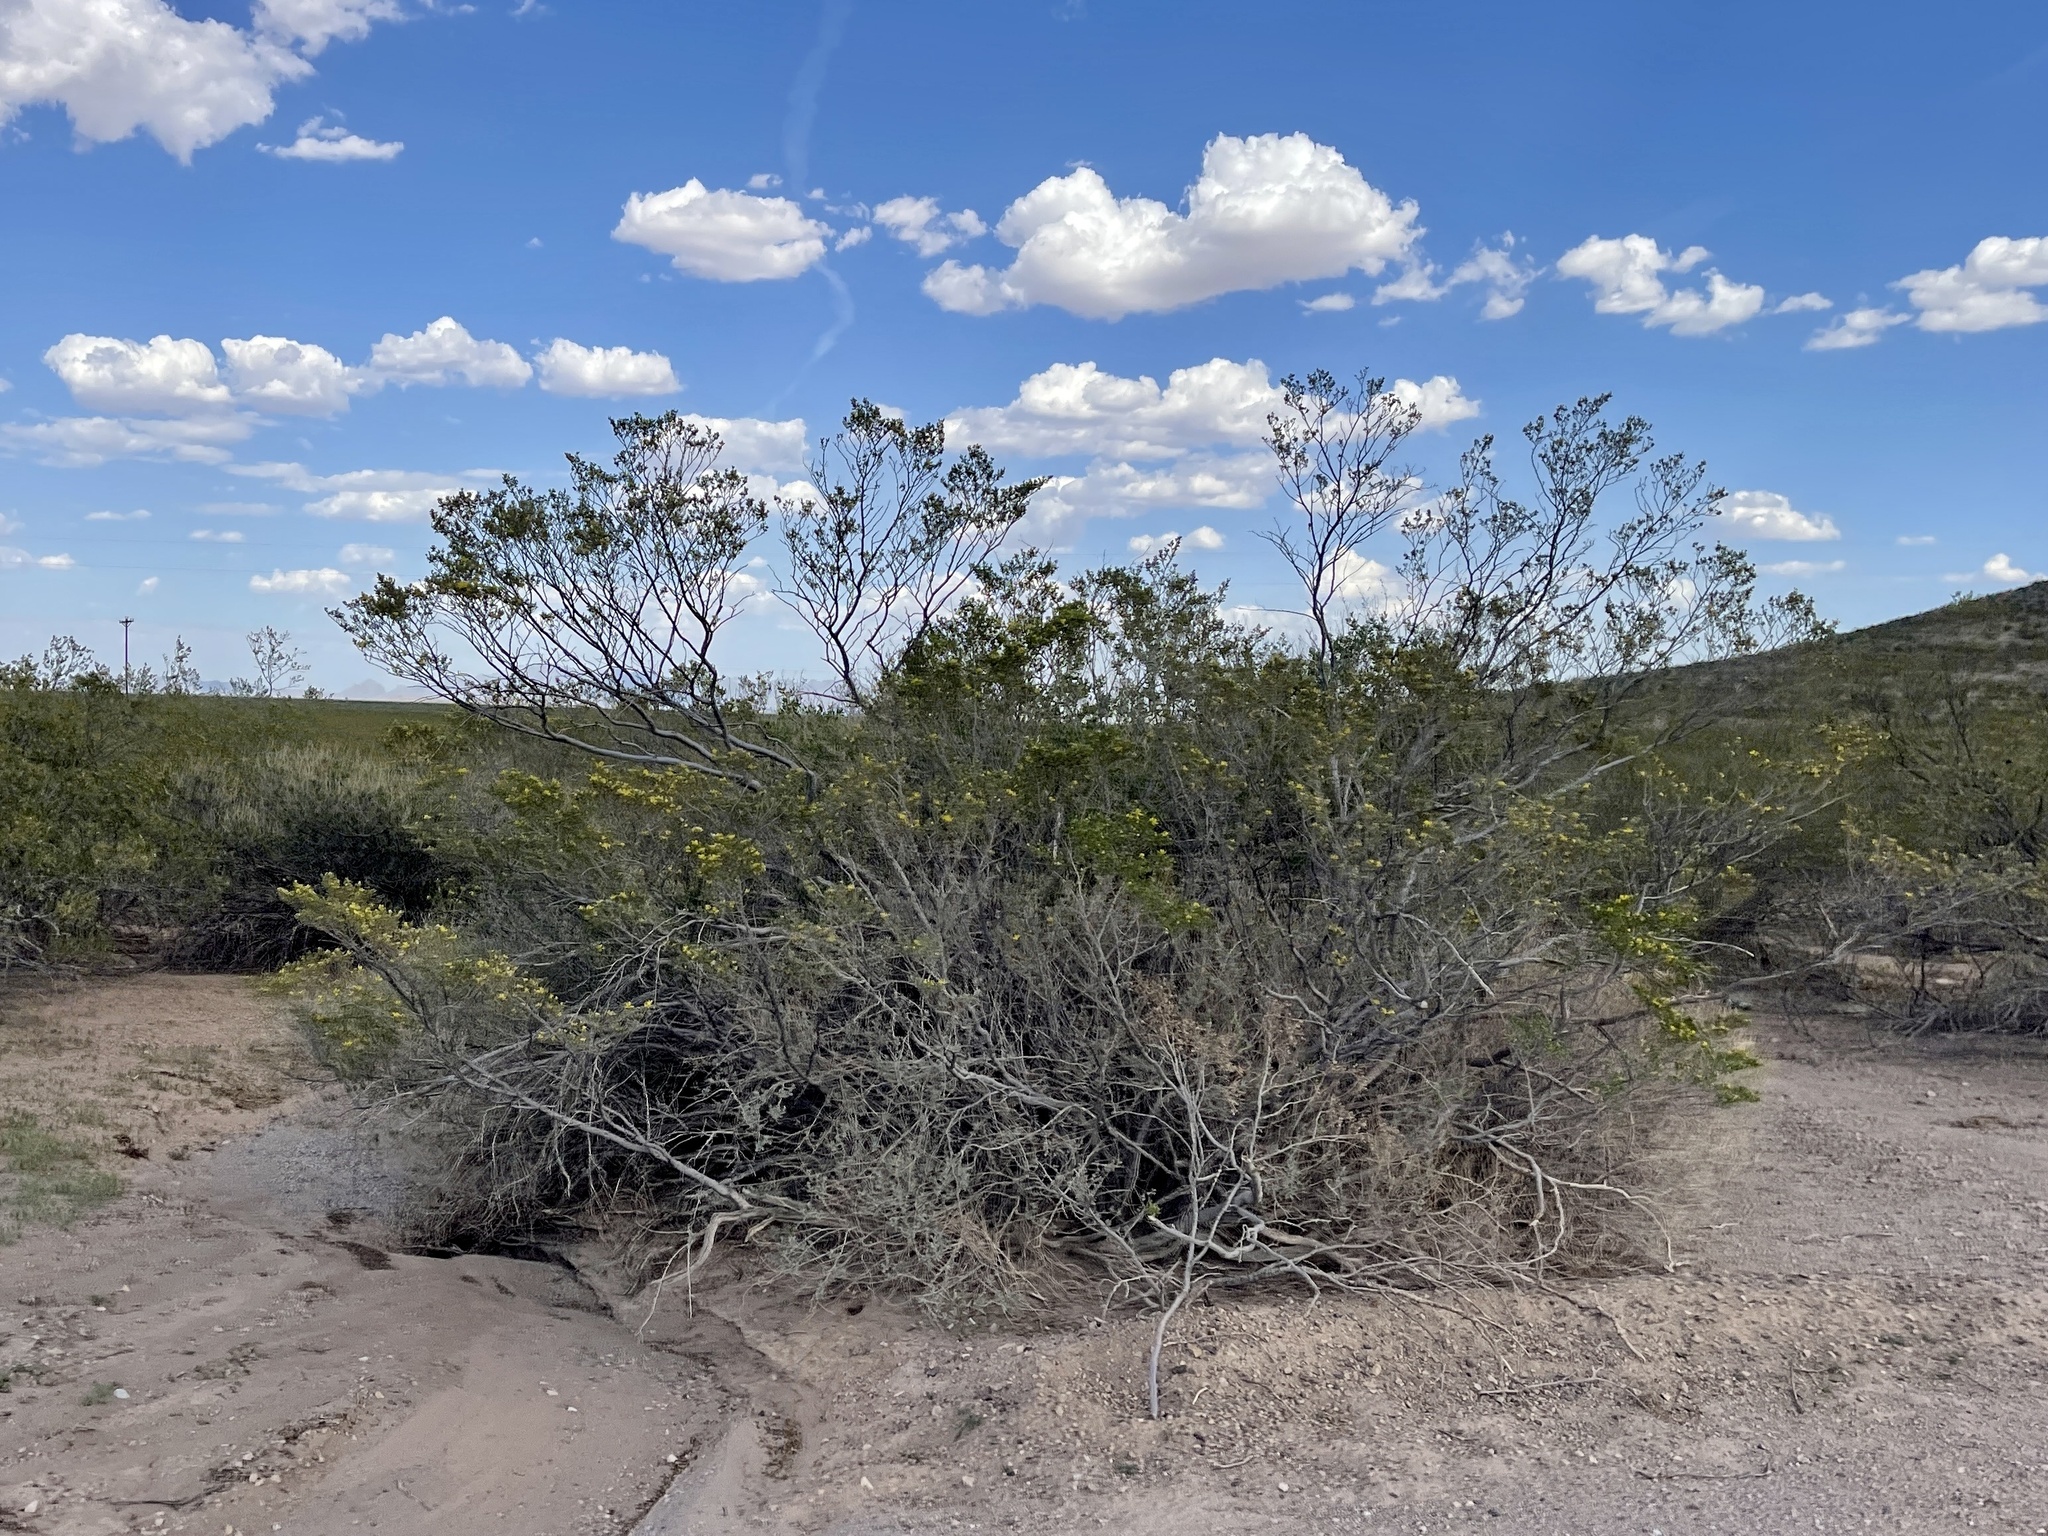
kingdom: Plantae
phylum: Tracheophyta
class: Magnoliopsida
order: Zygophyllales
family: Zygophyllaceae
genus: Larrea
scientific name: Larrea tridentata
